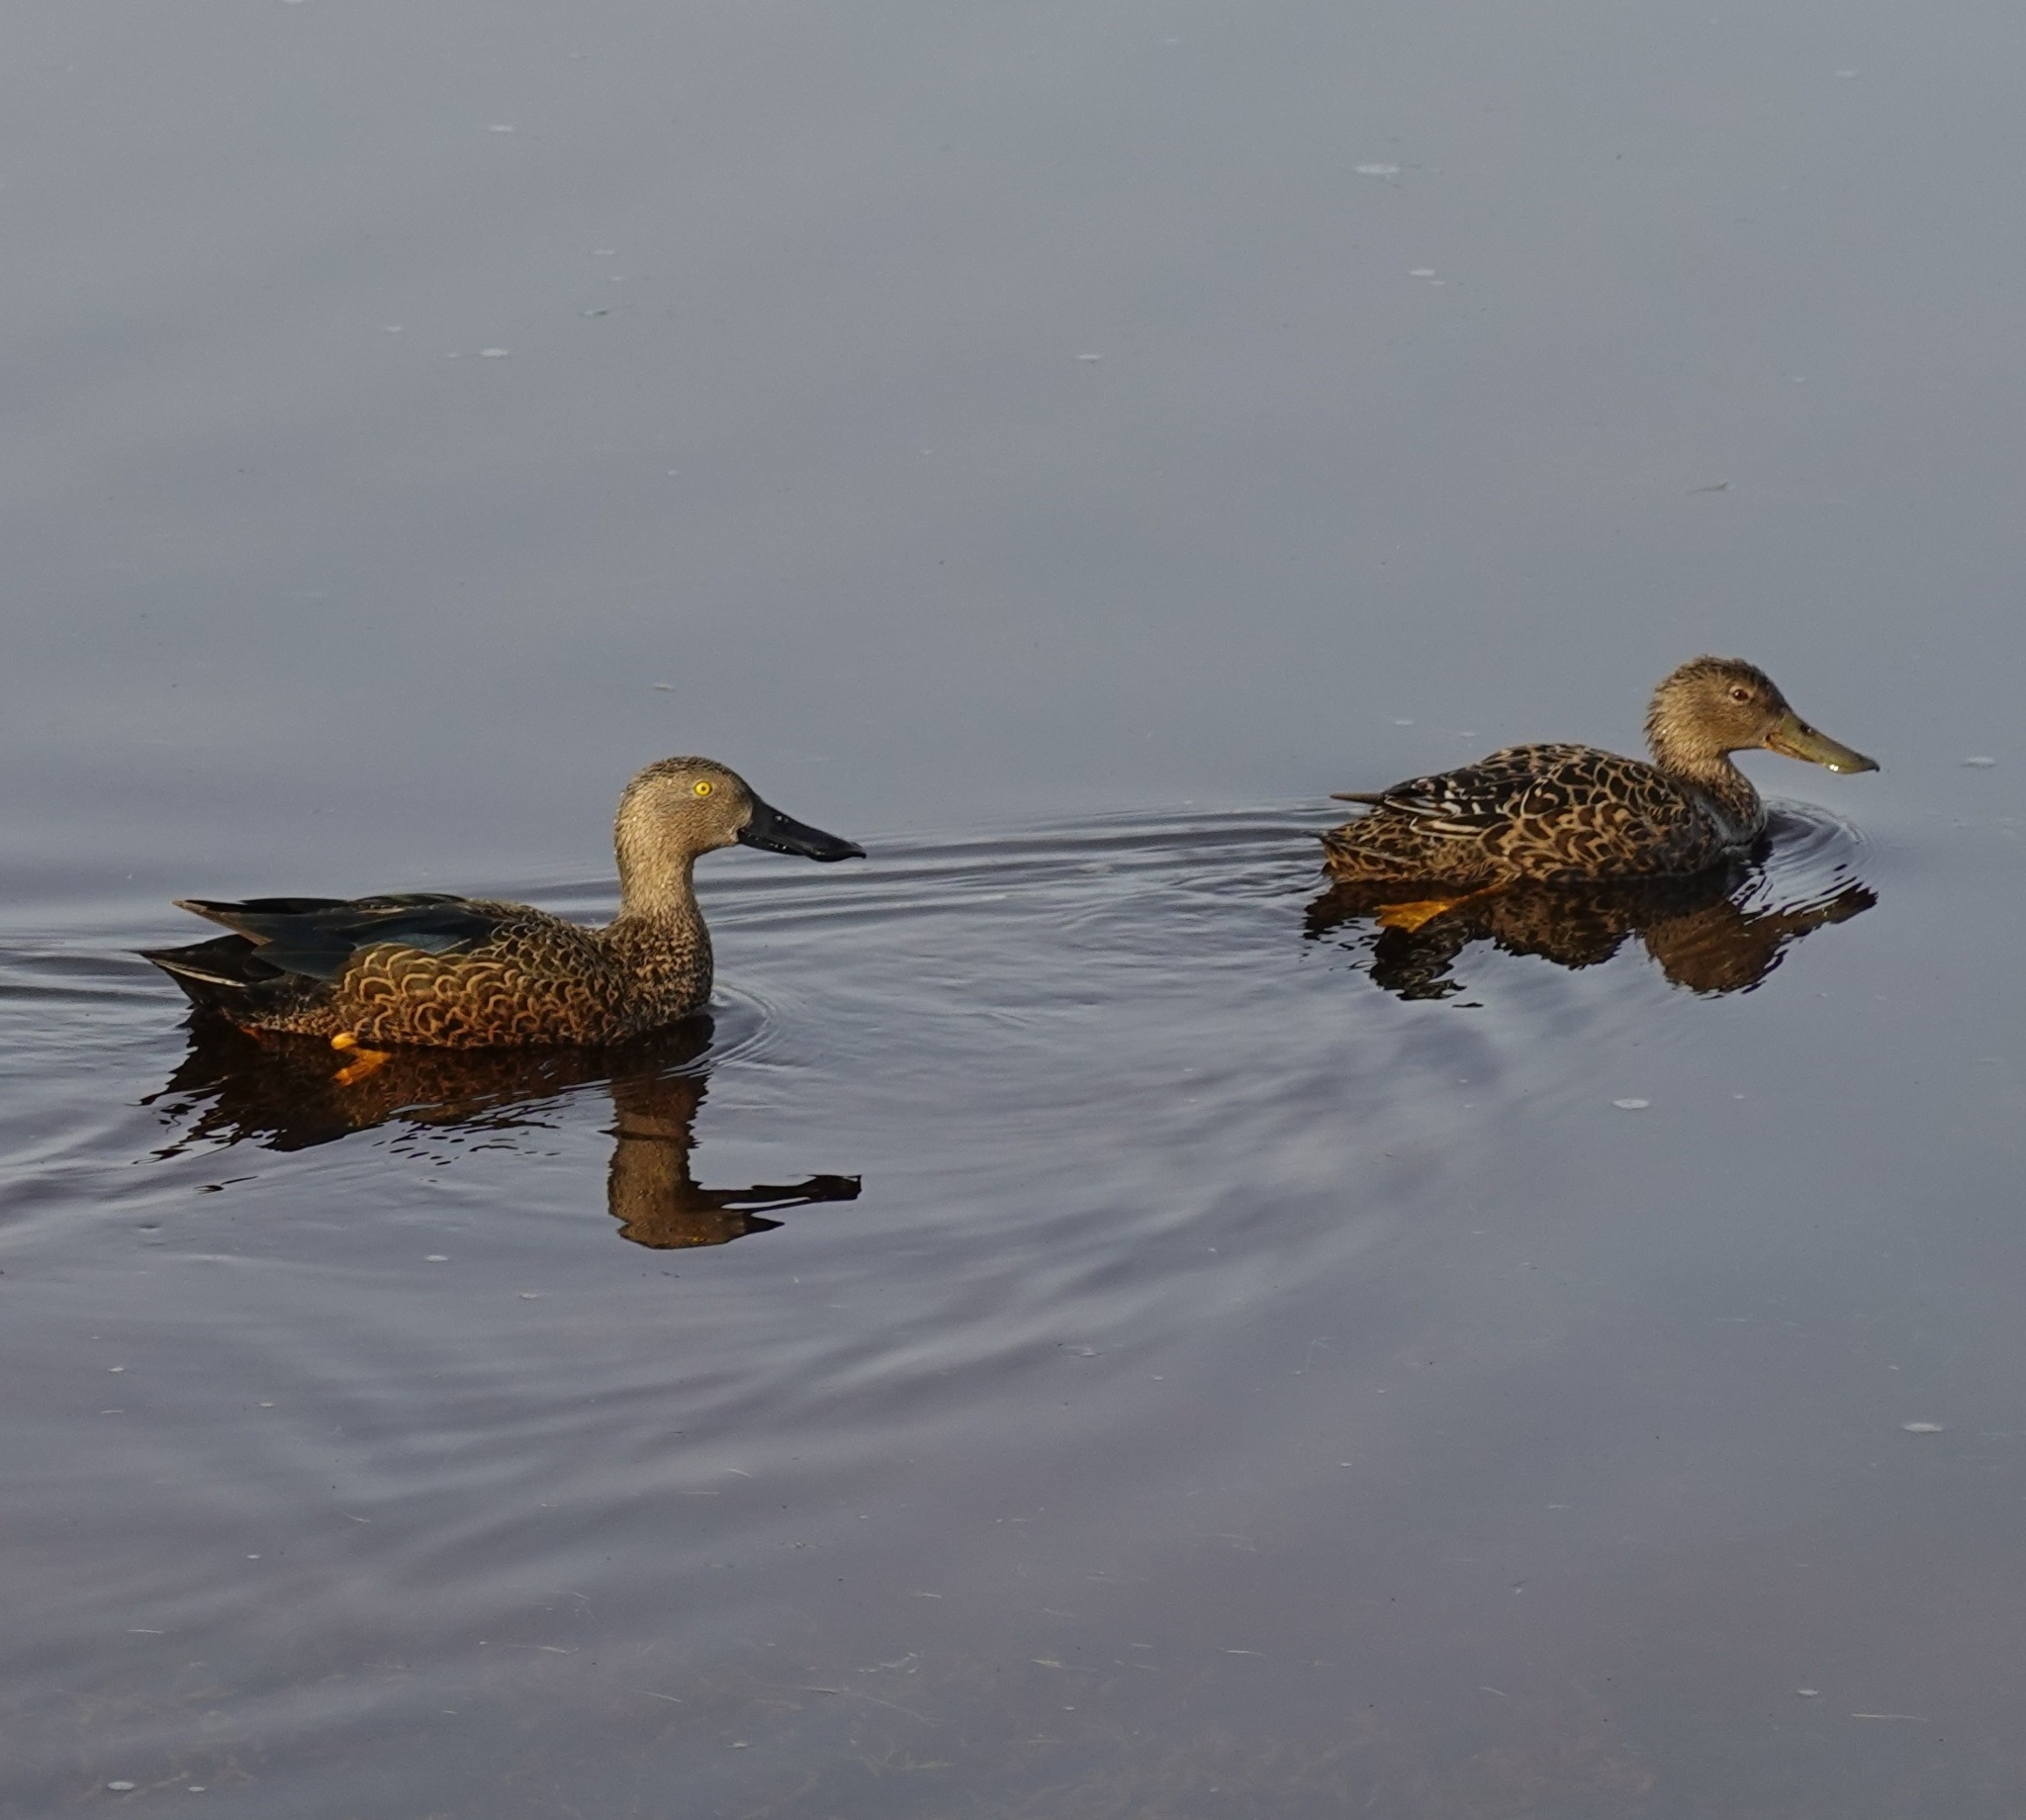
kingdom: Animalia
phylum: Chordata
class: Aves
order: Anseriformes
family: Anatidae
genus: Spatula
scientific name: Spatula smithii
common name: Cape shoveler
